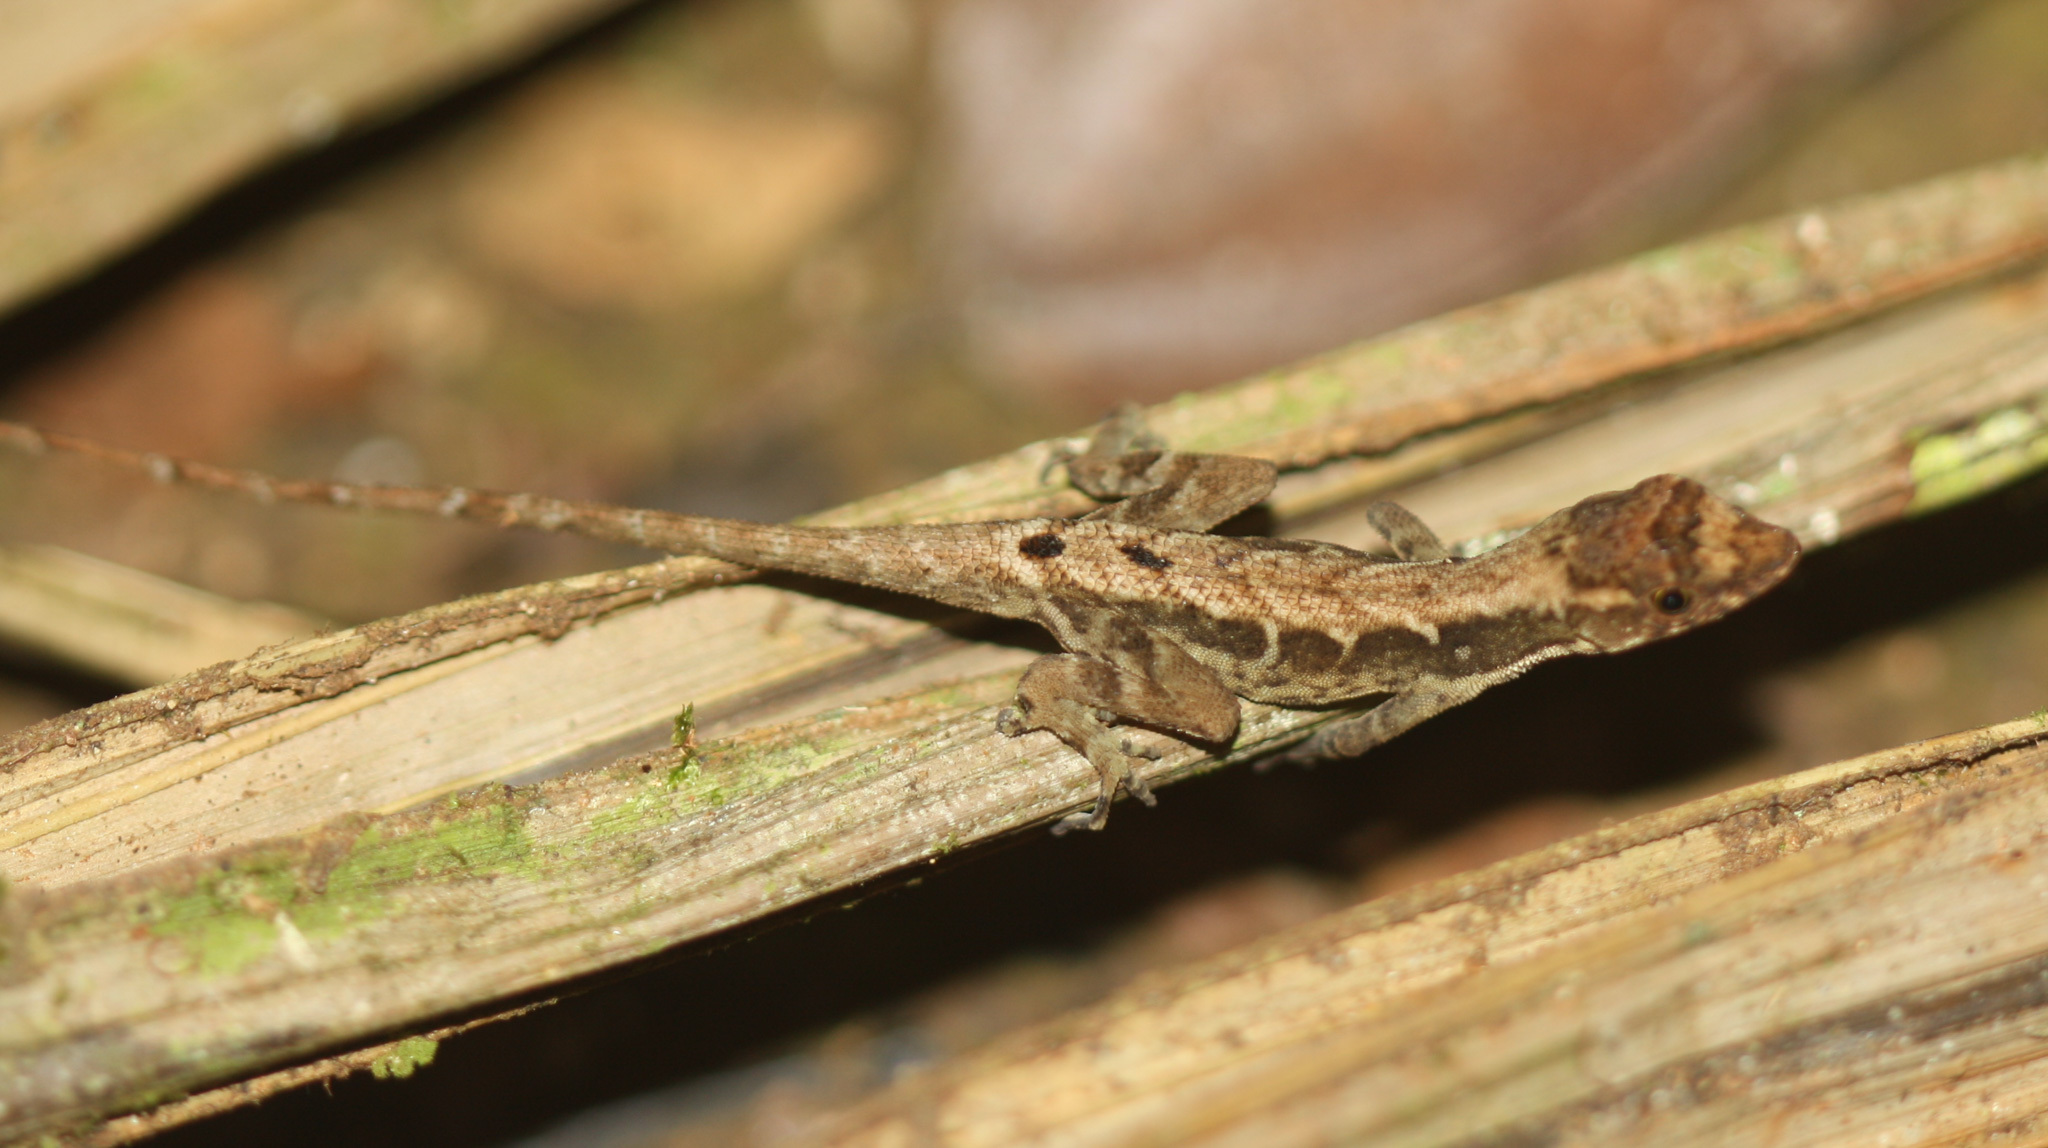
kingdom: Animalia
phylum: Chordata
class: Squamata
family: Dactyloidae
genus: Anolis
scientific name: Anolis humilis
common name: Humble anole
